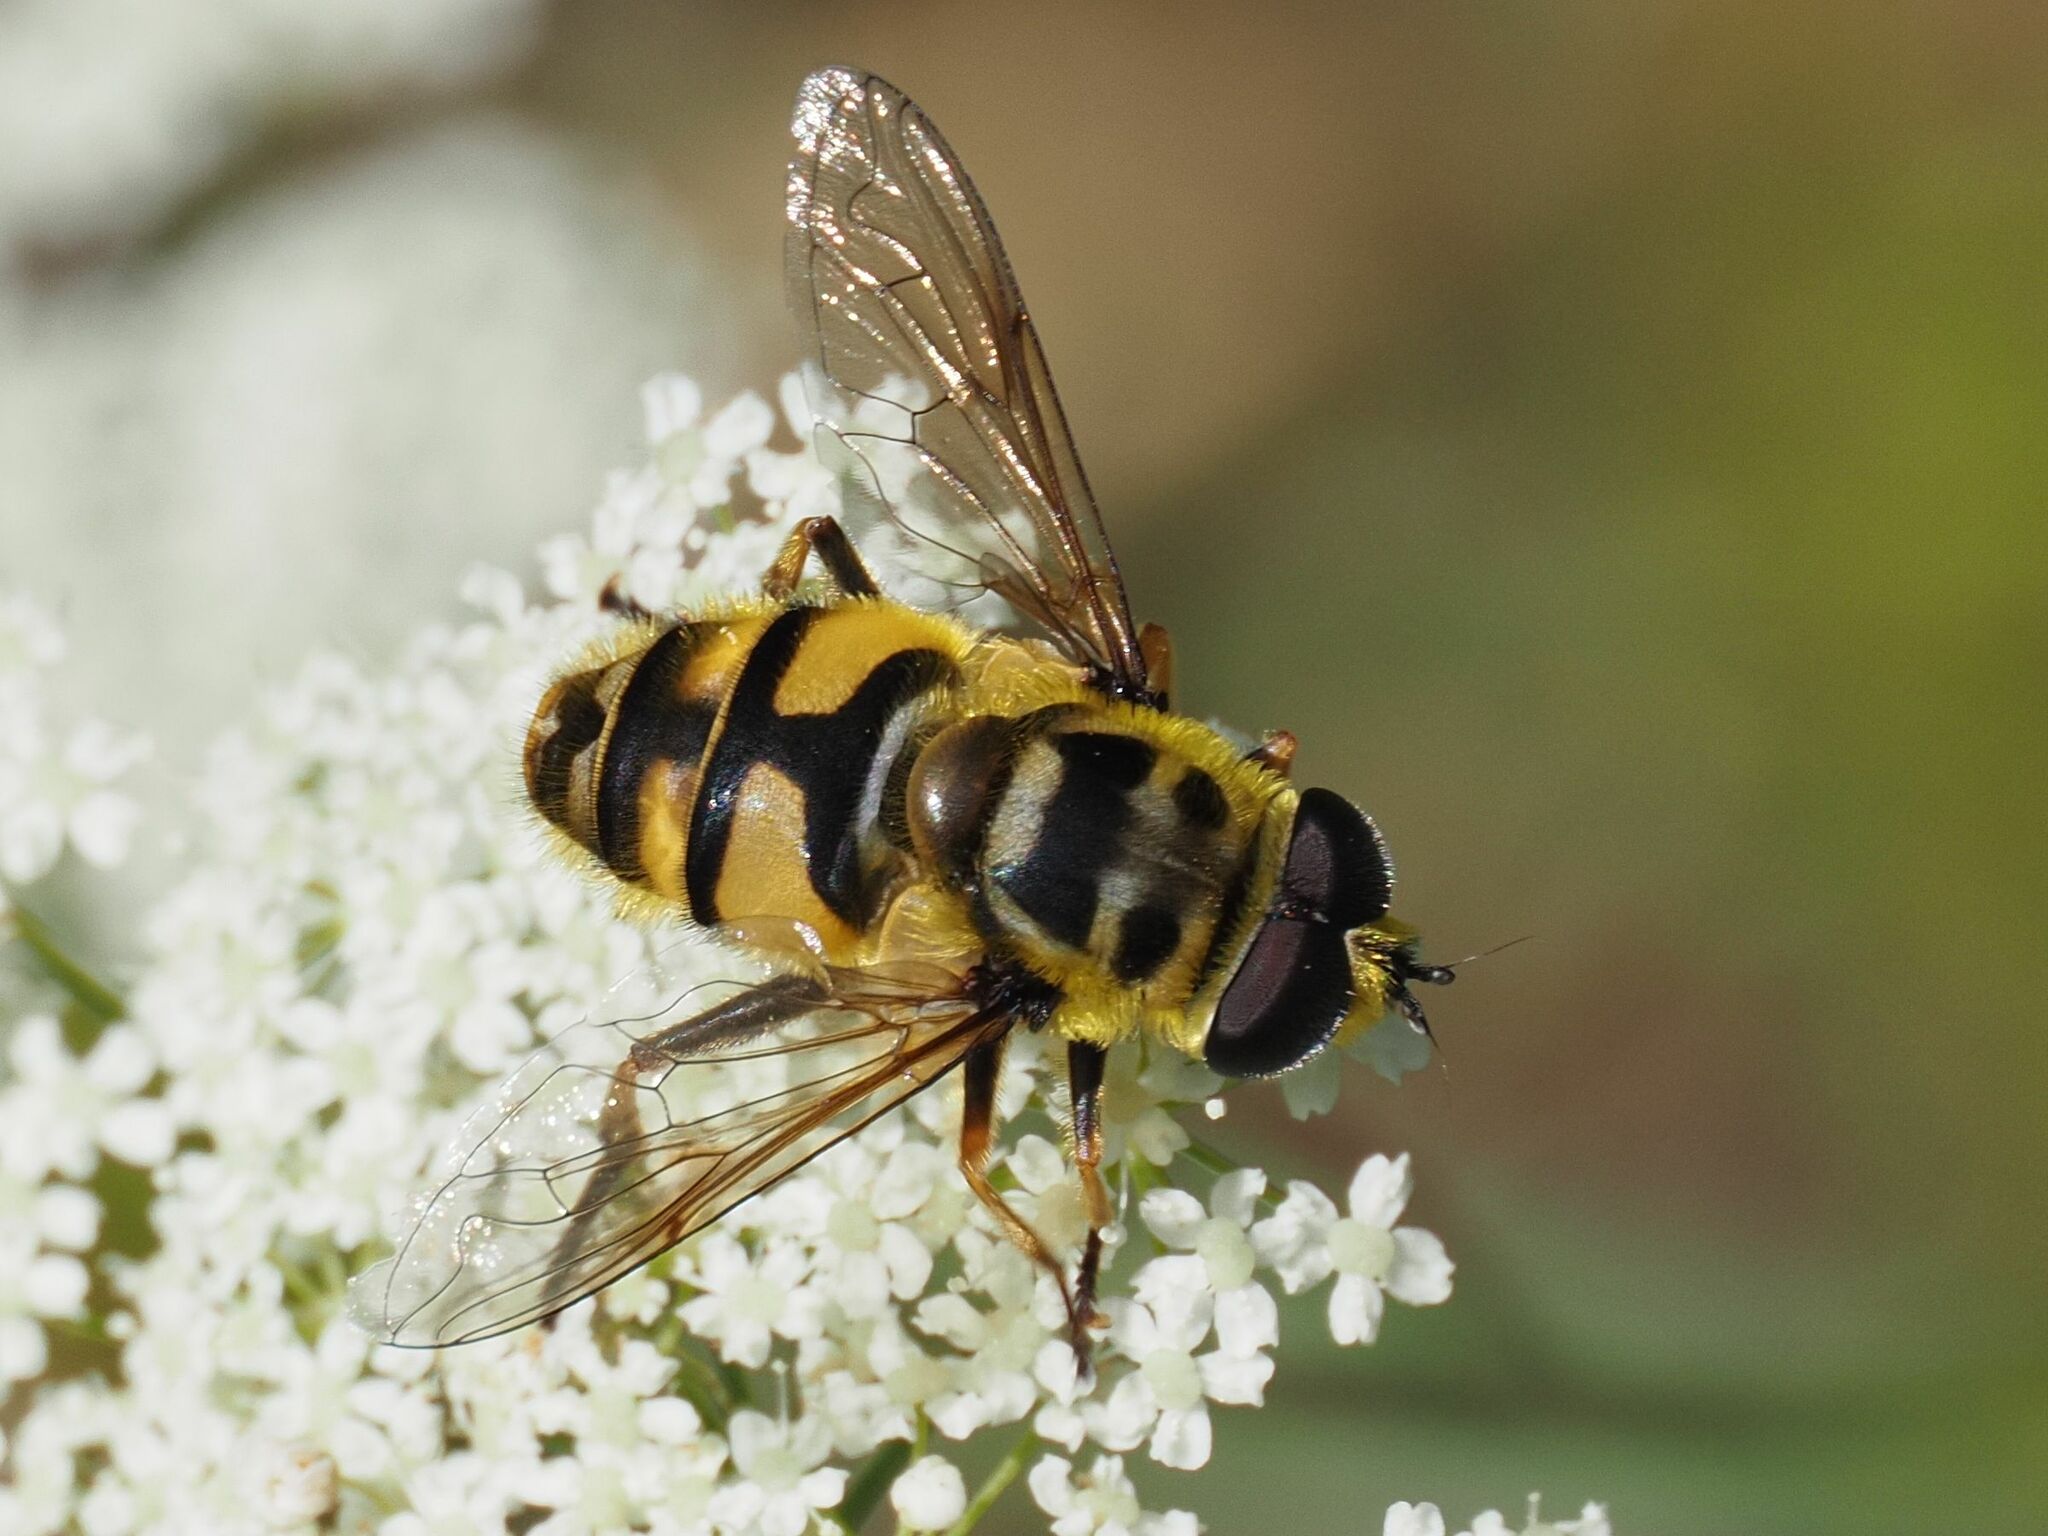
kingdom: Animalia
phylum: Arthropoda
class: Insecta
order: Diptera
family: Syrphidae
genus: Myathropa
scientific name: Myathropa florea
